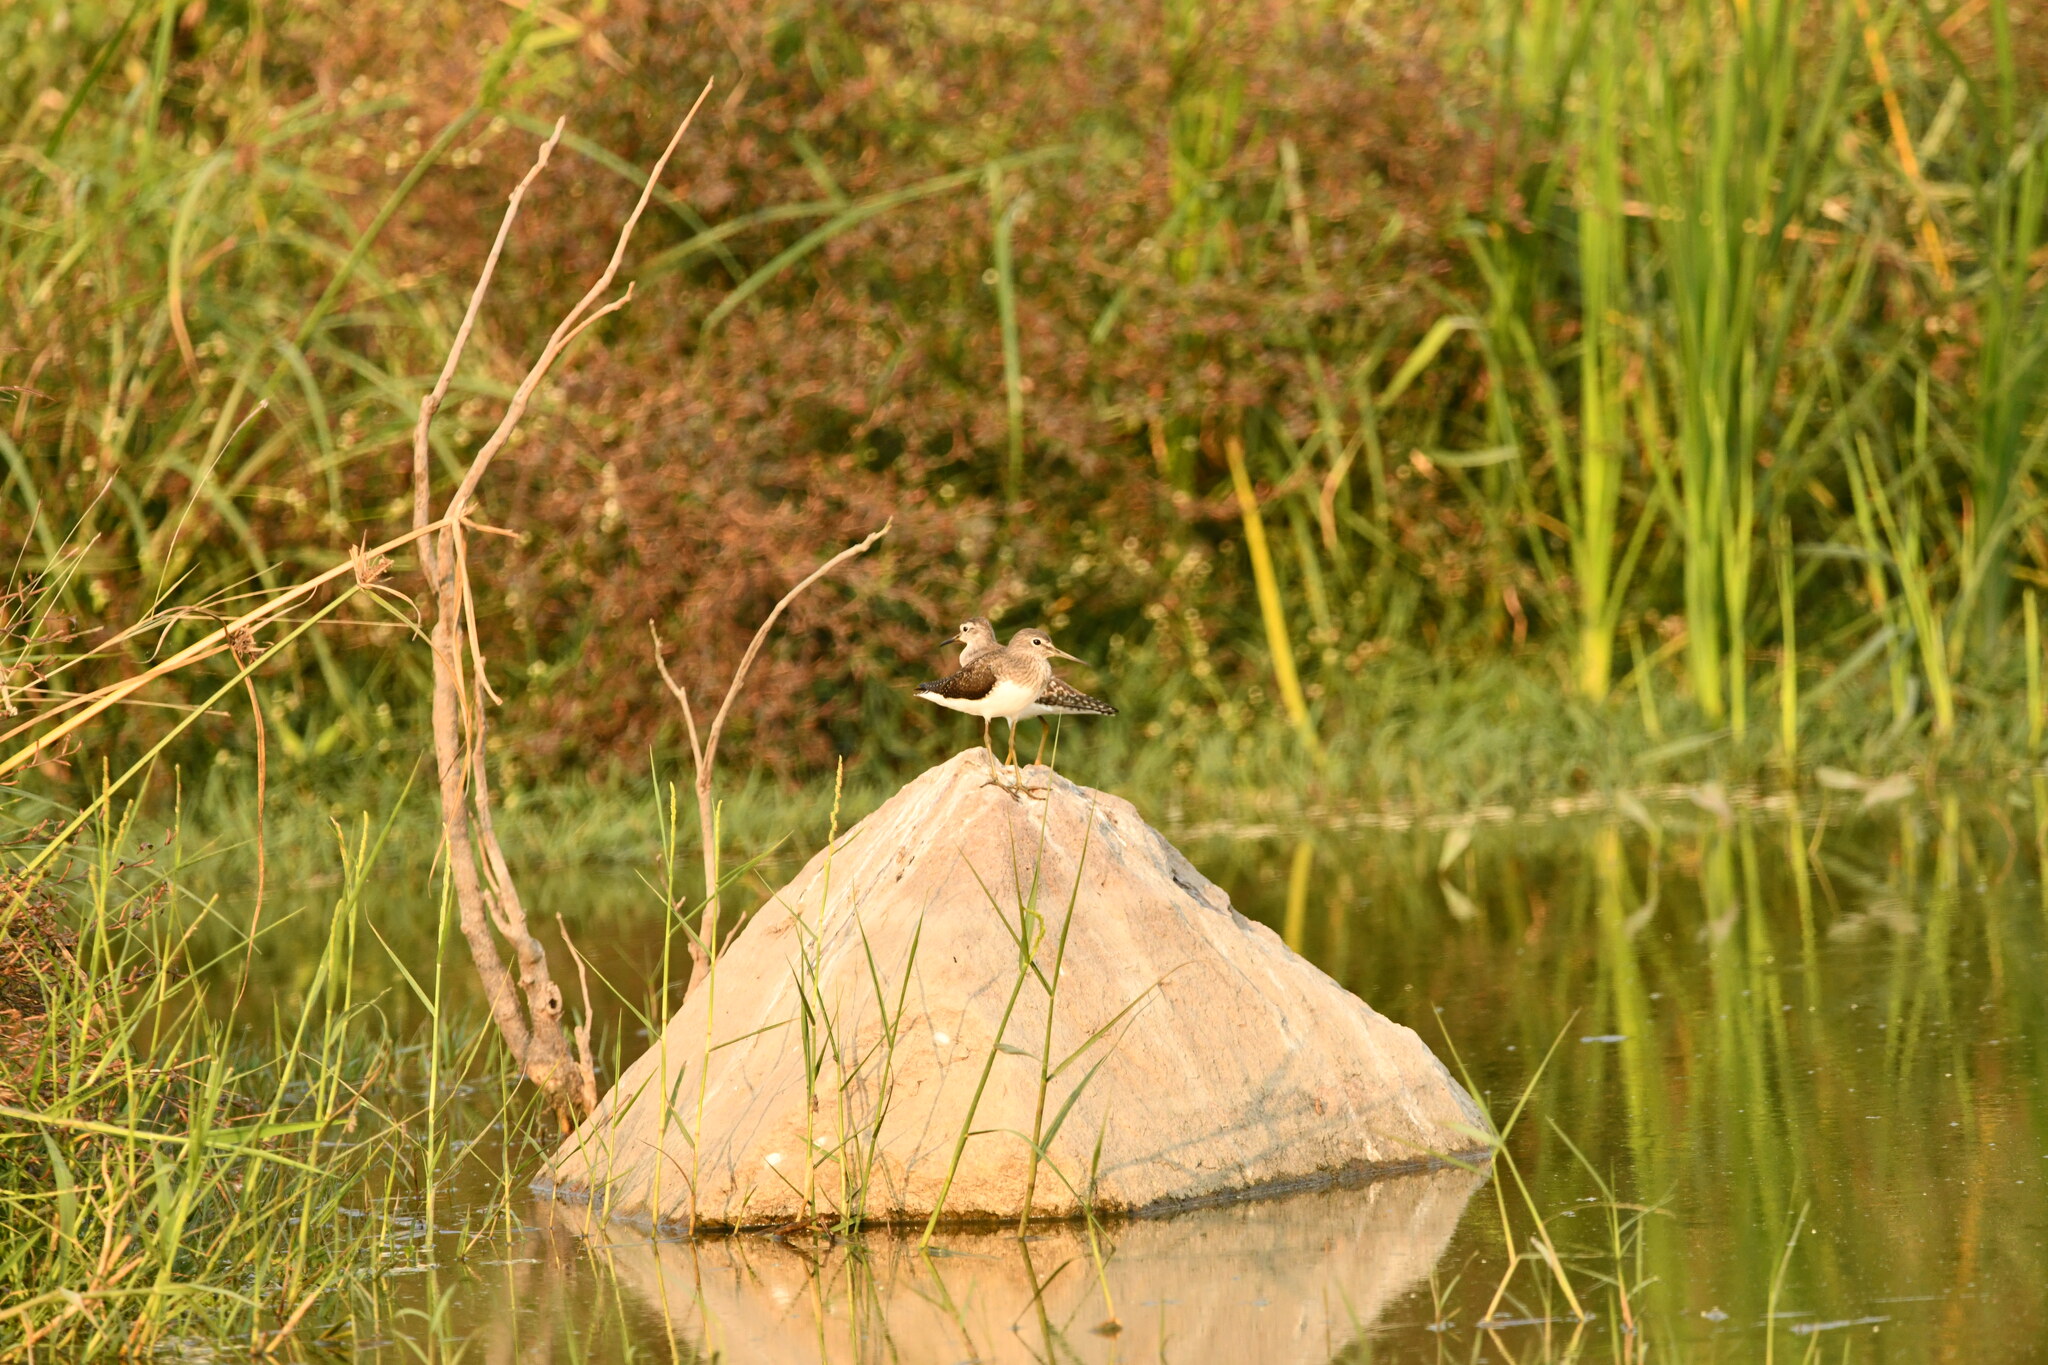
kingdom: Animalia
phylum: Chordata
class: Aves
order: Charadriiformes
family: Scolopacidae
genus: Tringa
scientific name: Tringa glareola
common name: Wood sandpiper
